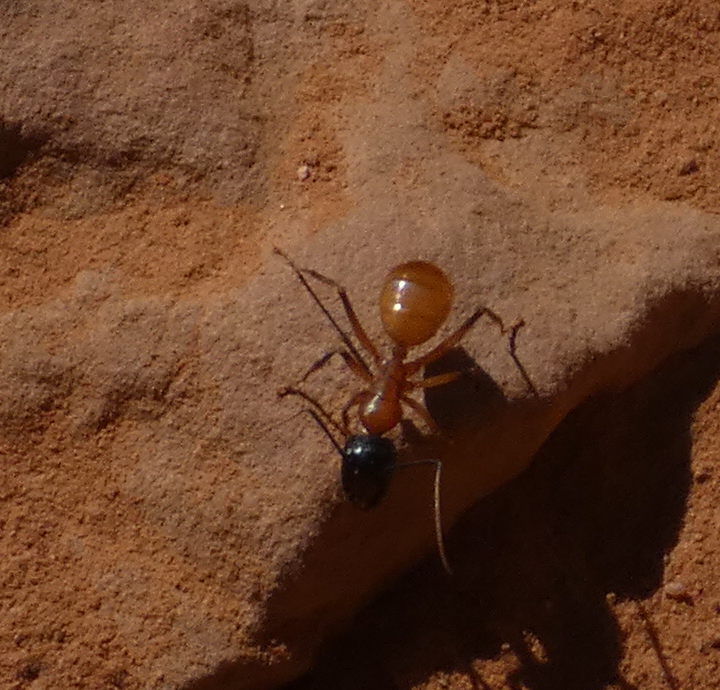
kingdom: Animalia
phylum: Arthropoda
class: Insecta
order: Hymenoptera
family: Formicidae
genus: Camponotus
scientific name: Camponotus ocreatus
